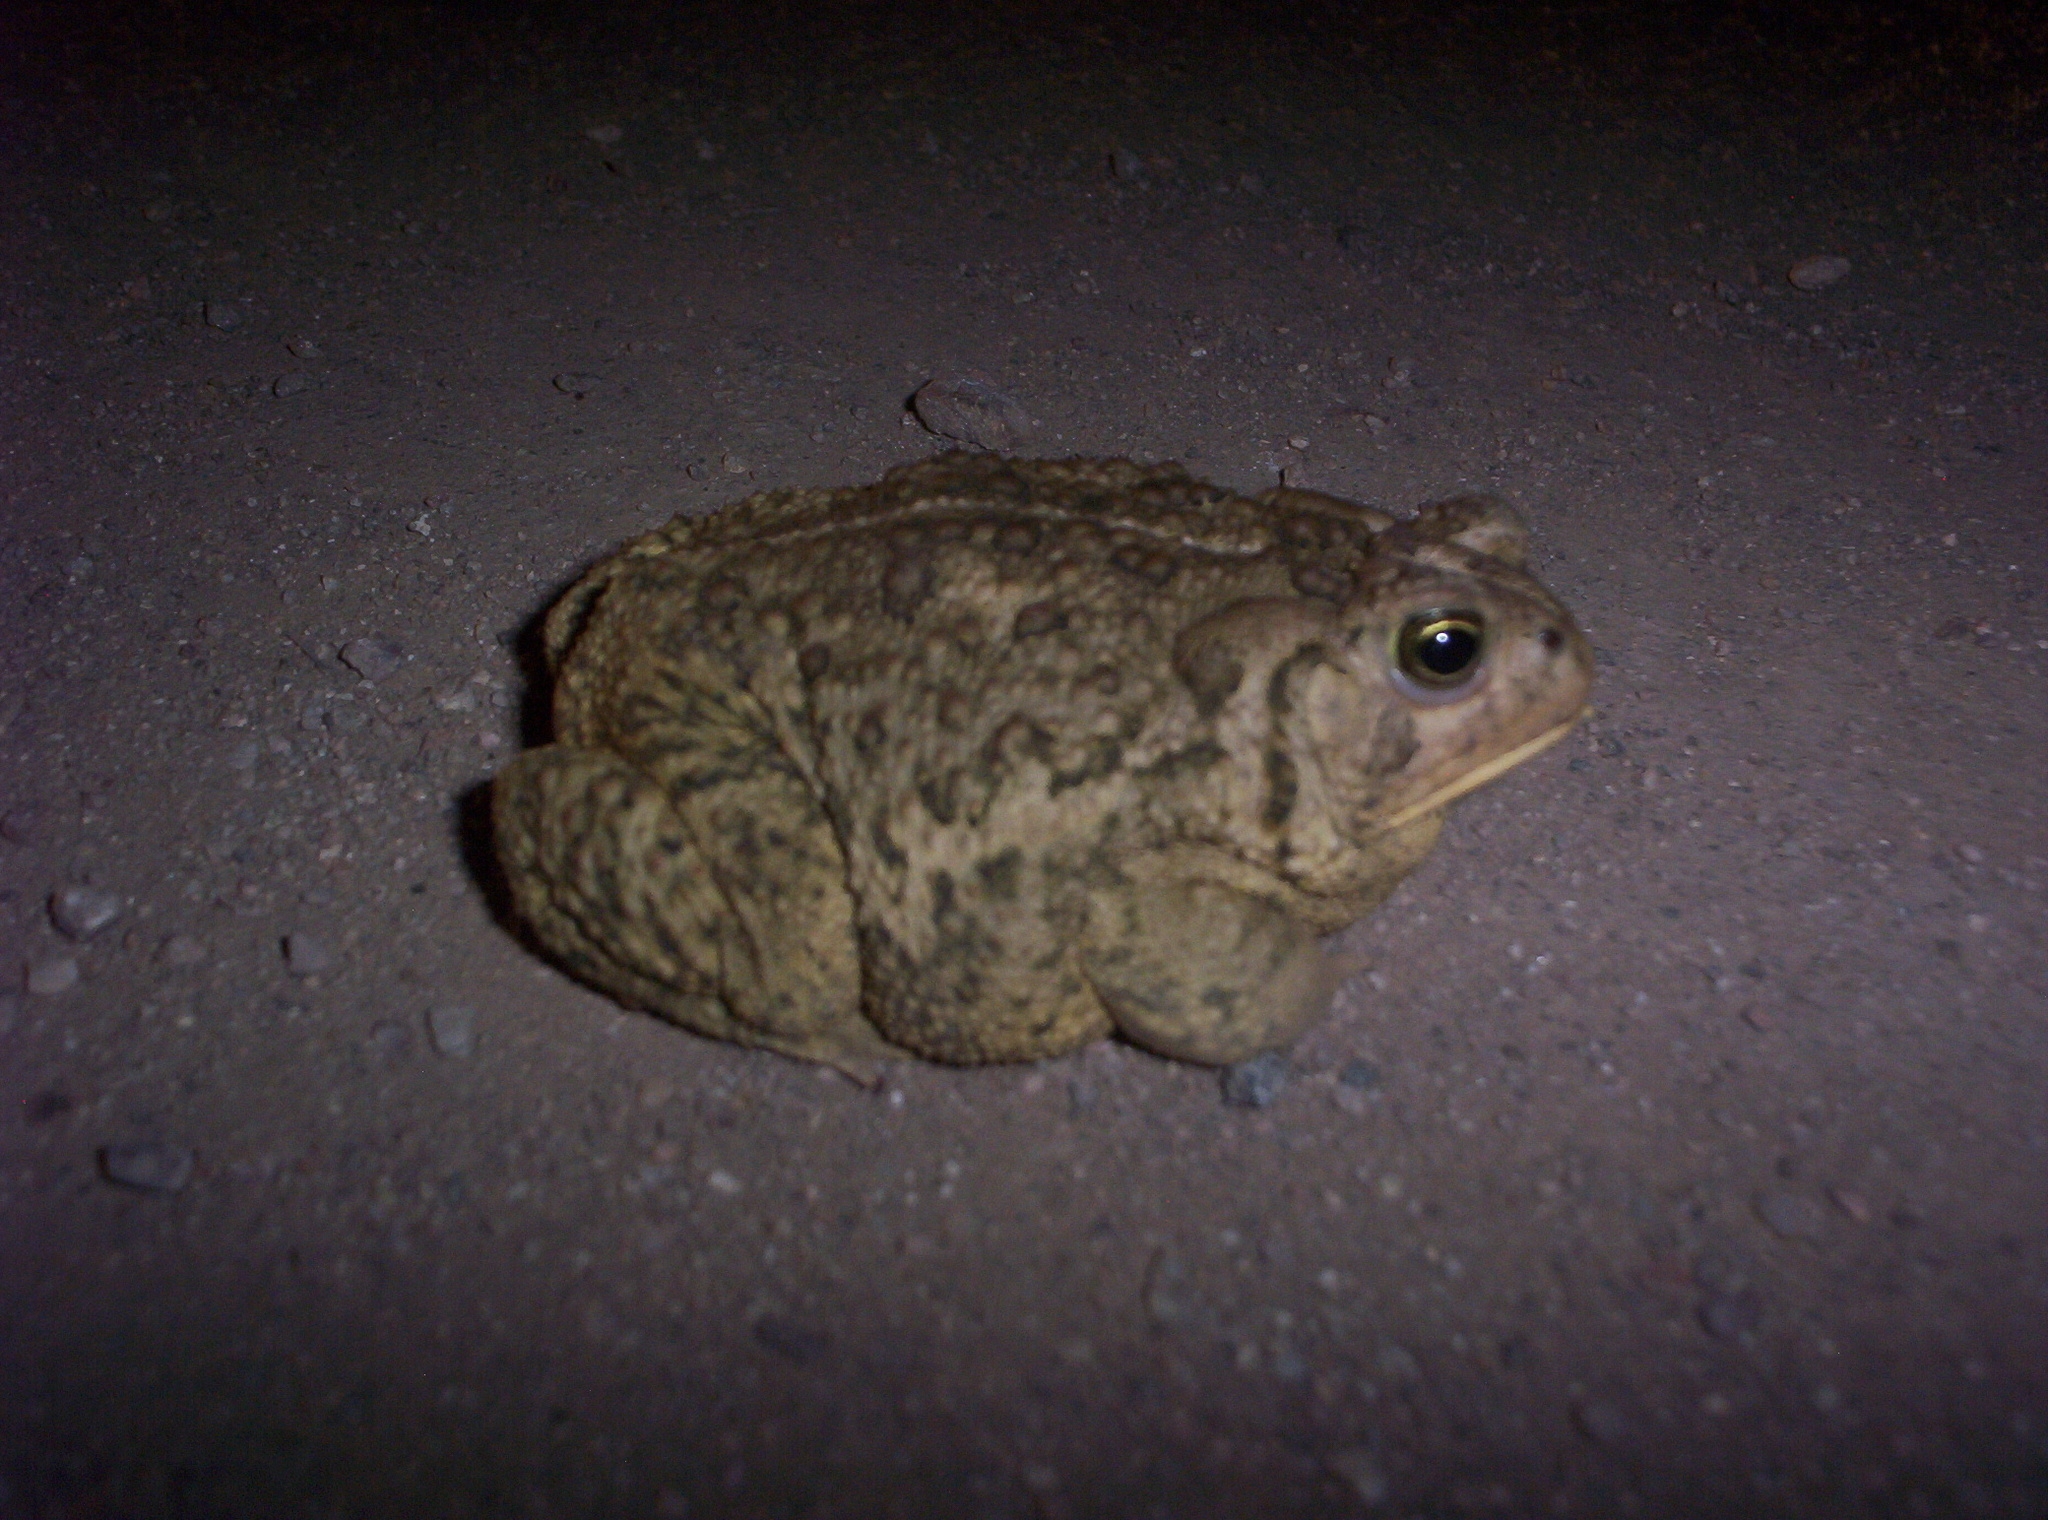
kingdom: Animalia
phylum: Chordata
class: Amphibia
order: Anura
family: Bufonidae
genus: Anaxyrus
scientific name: Anaxyrus woodhousii
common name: Woodhouse's toad
